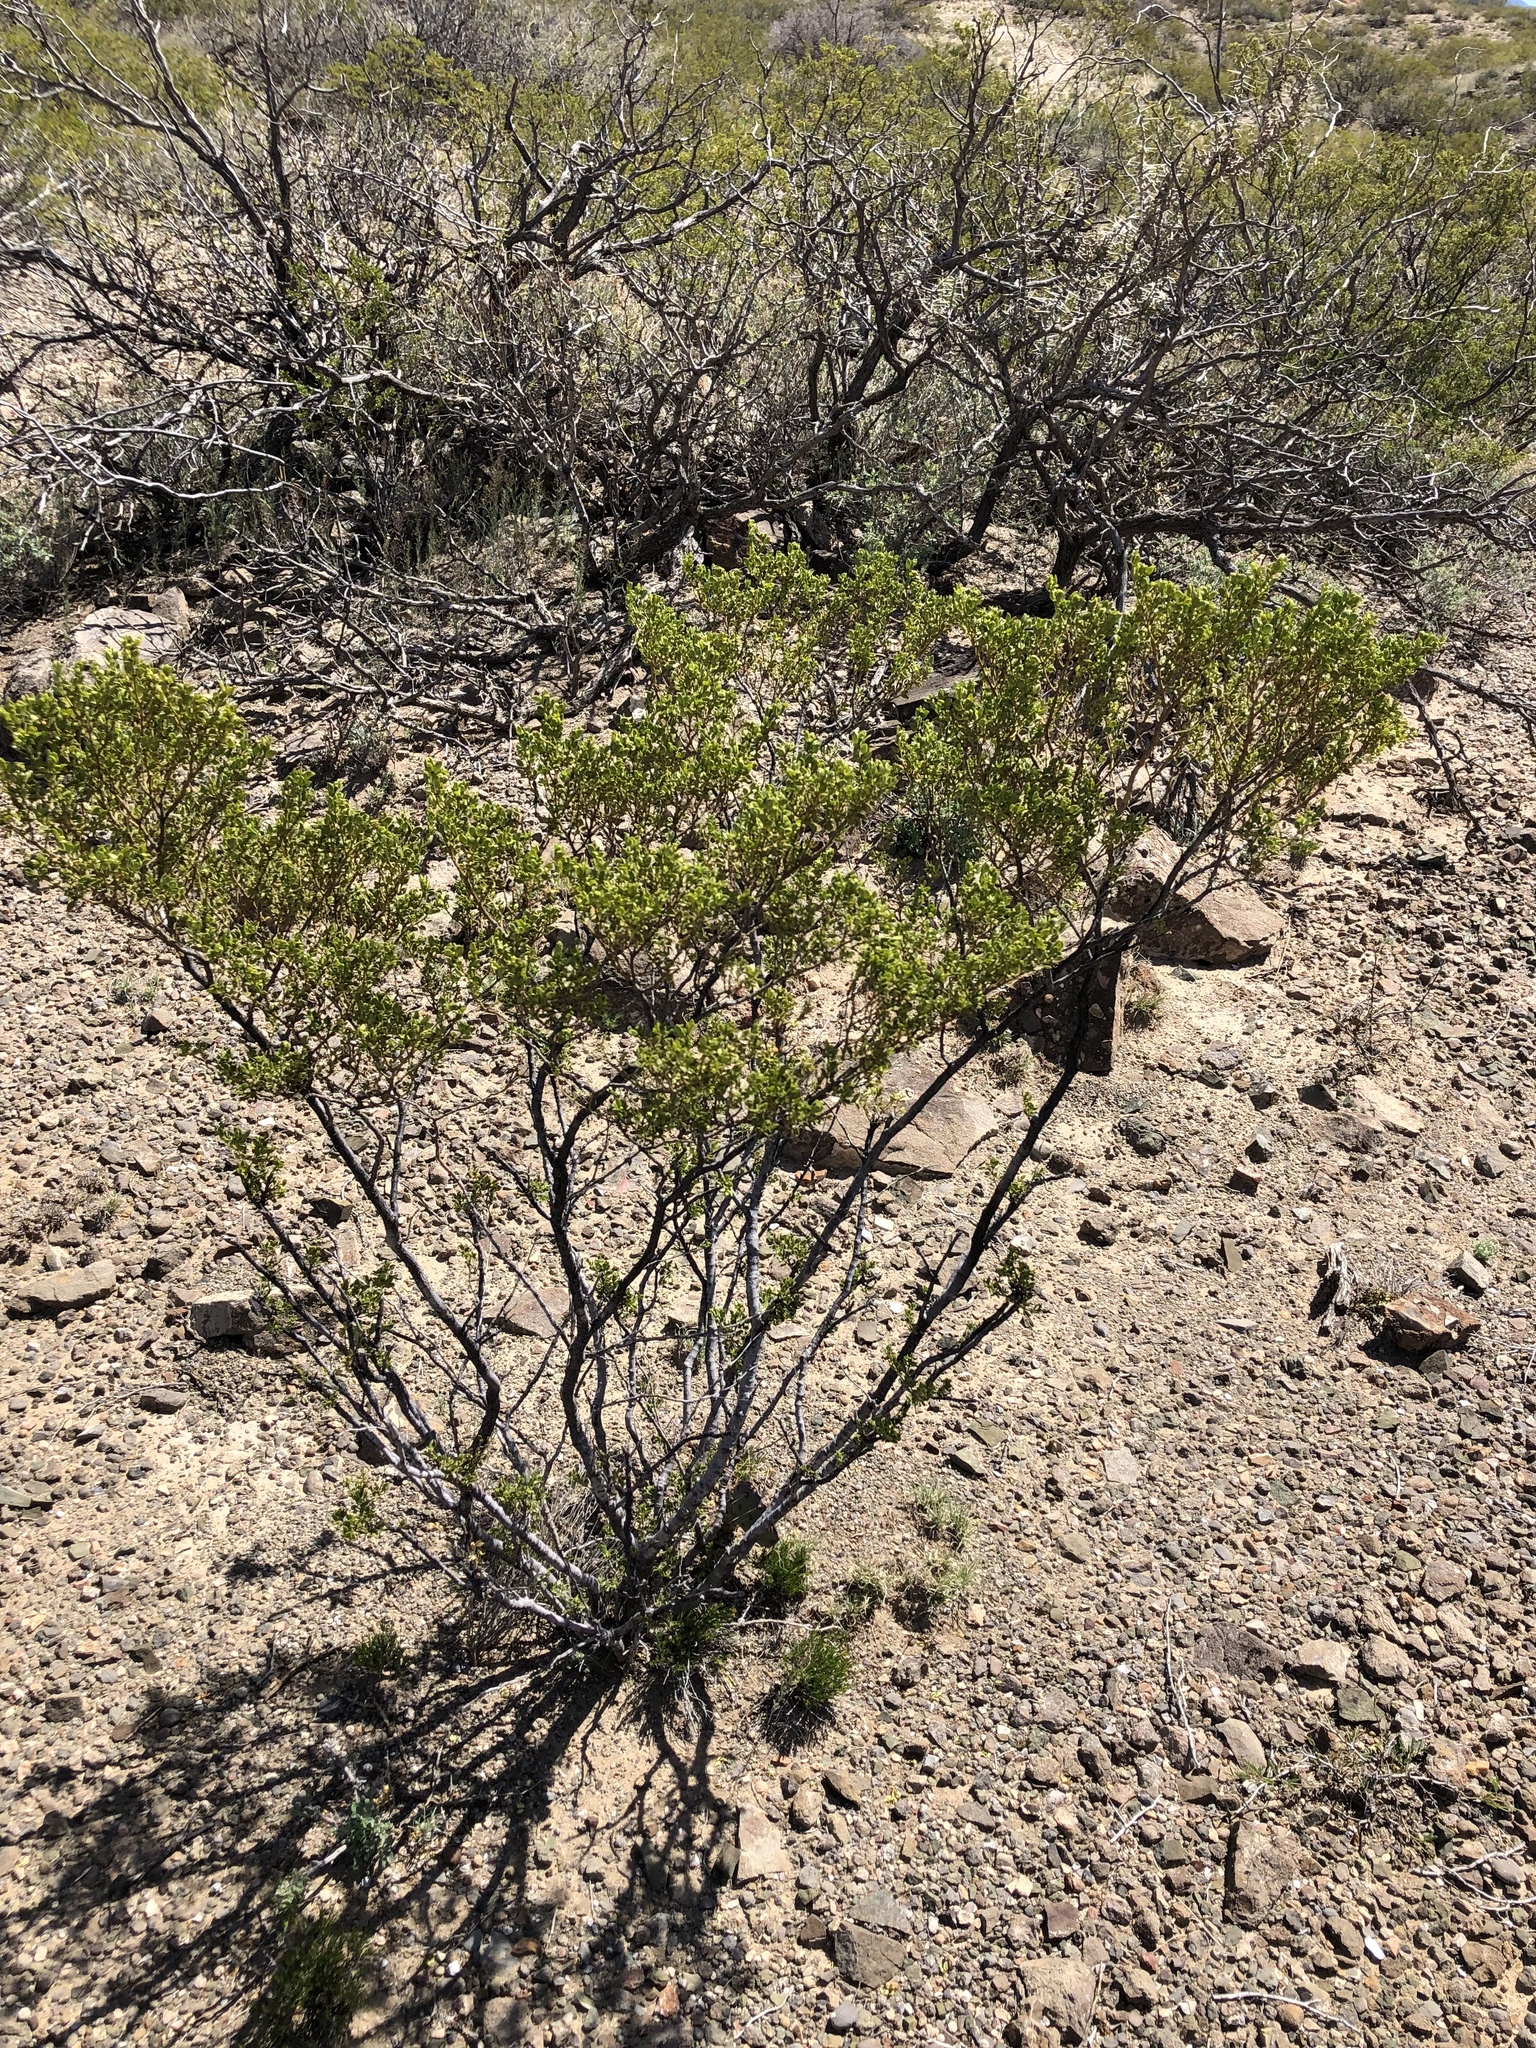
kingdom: Plantae
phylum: Tracheophyta
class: Magnoliopsida
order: Zygophyllales
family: Zygophyllaceae
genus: Larrea
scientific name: Larrea tridentata
